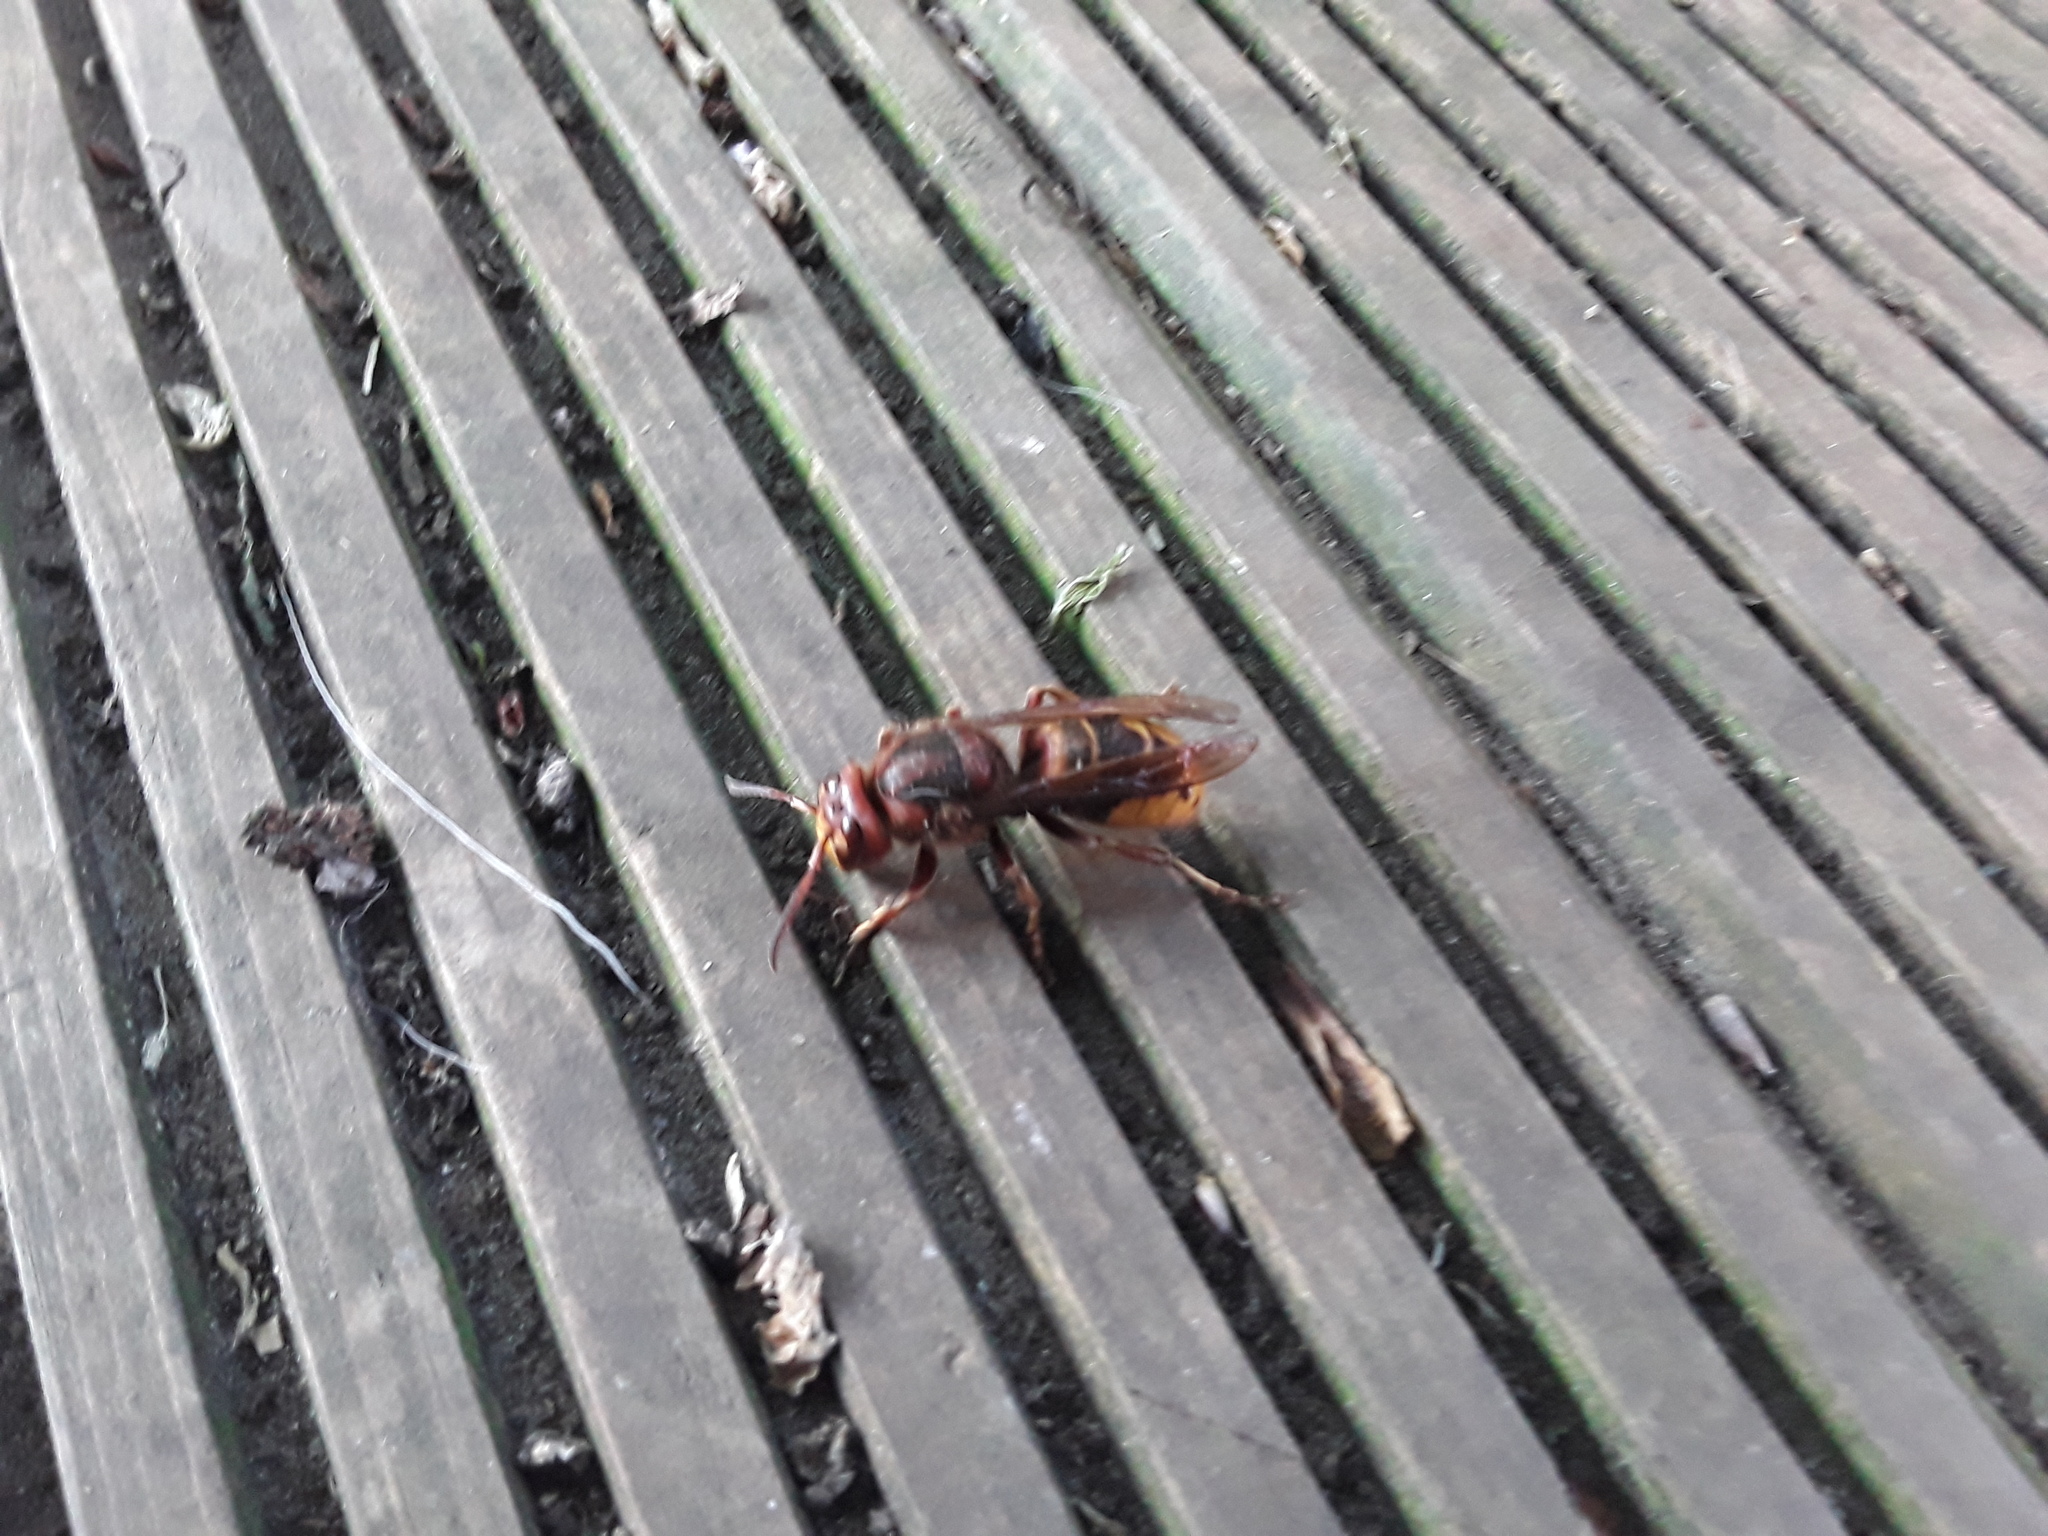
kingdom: Animalia
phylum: Arthropoda
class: Insecta
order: Hymenoptera
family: Vespidae
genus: Vespa
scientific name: Vespa crabro
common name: Hornet
